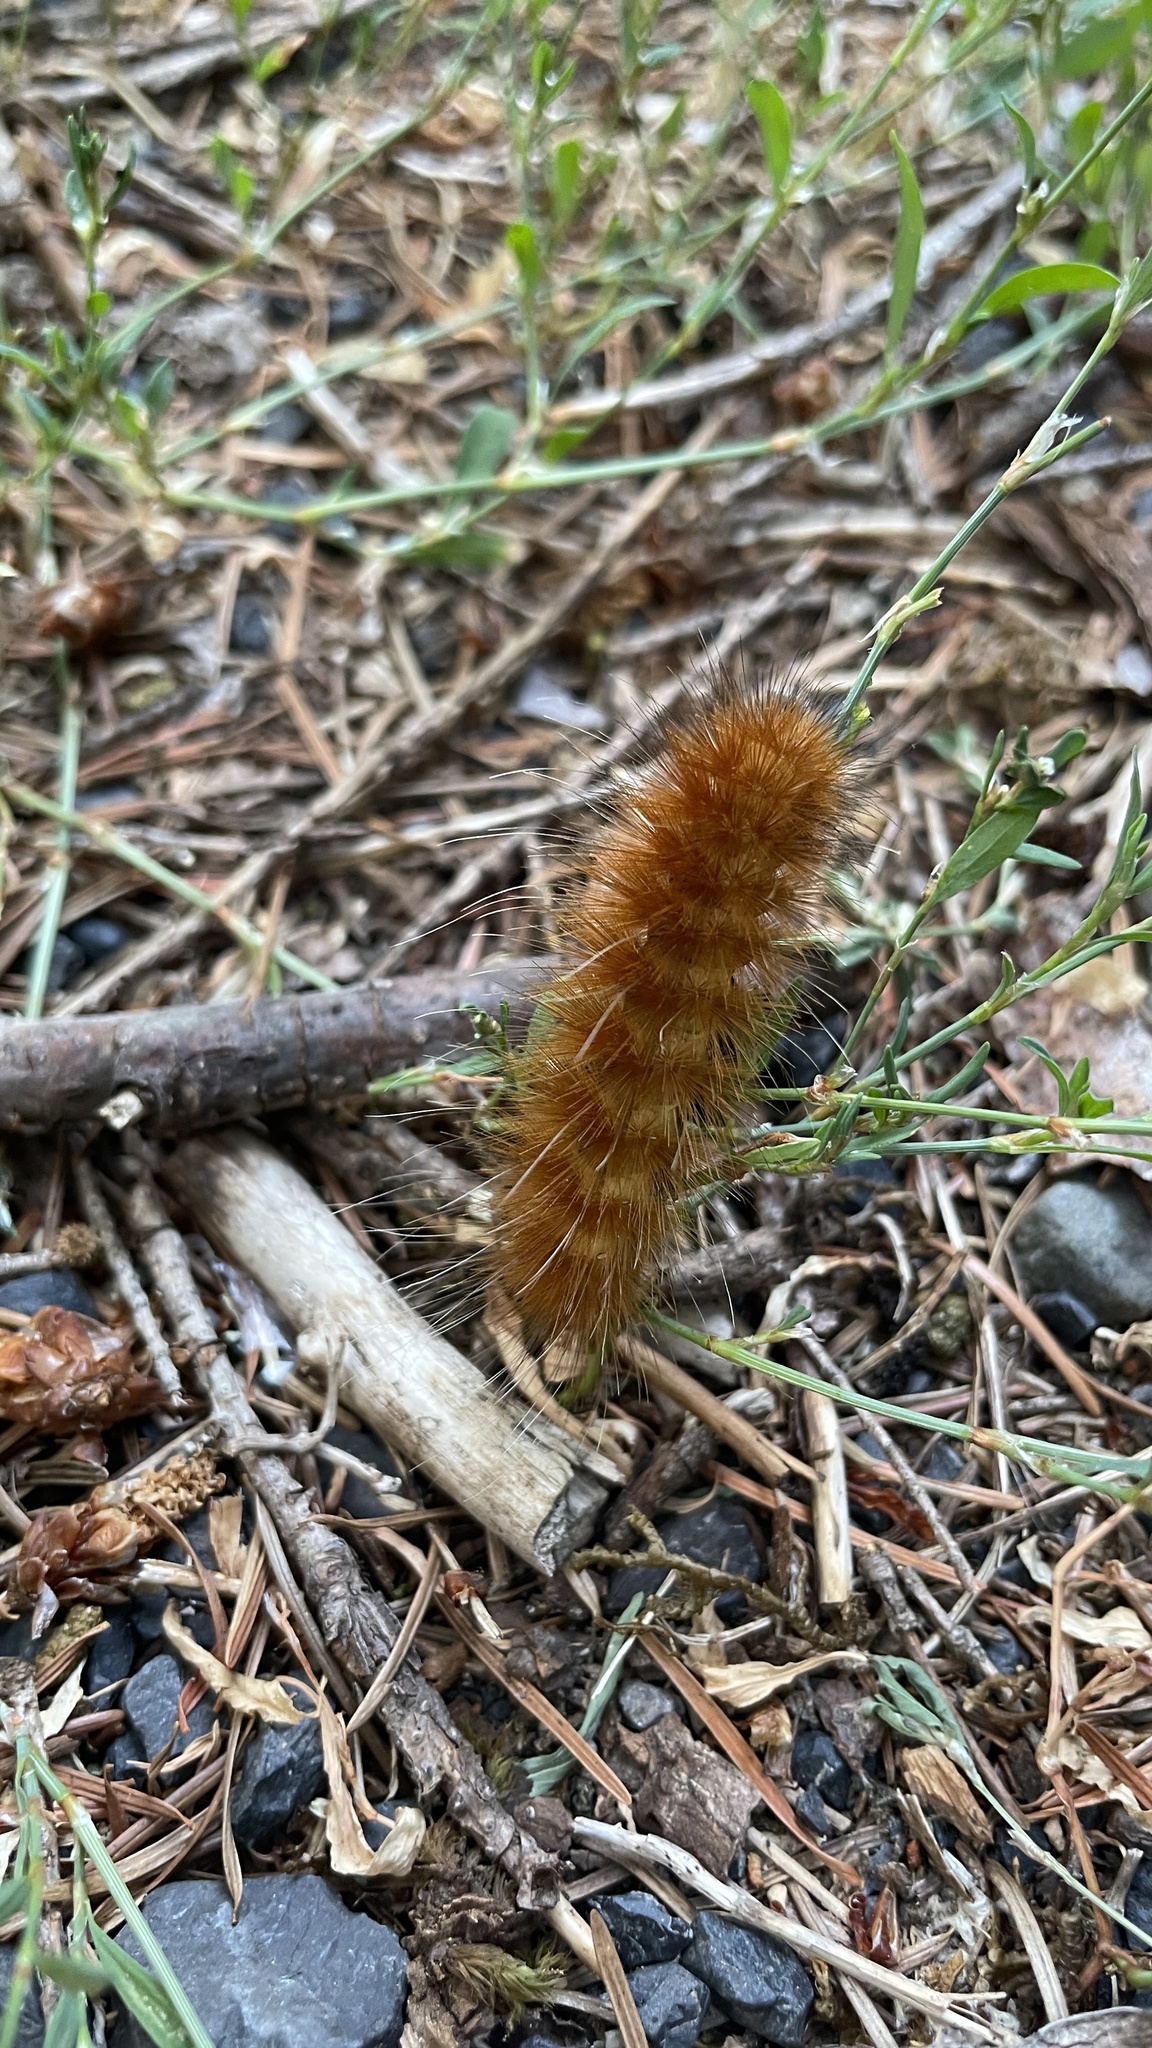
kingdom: Animalia
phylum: Arthropoda
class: Insecta
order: Lepidoptera
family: Erebidae
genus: Spilosoma
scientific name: Spilosoma virginica
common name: Virginia tiger moth
